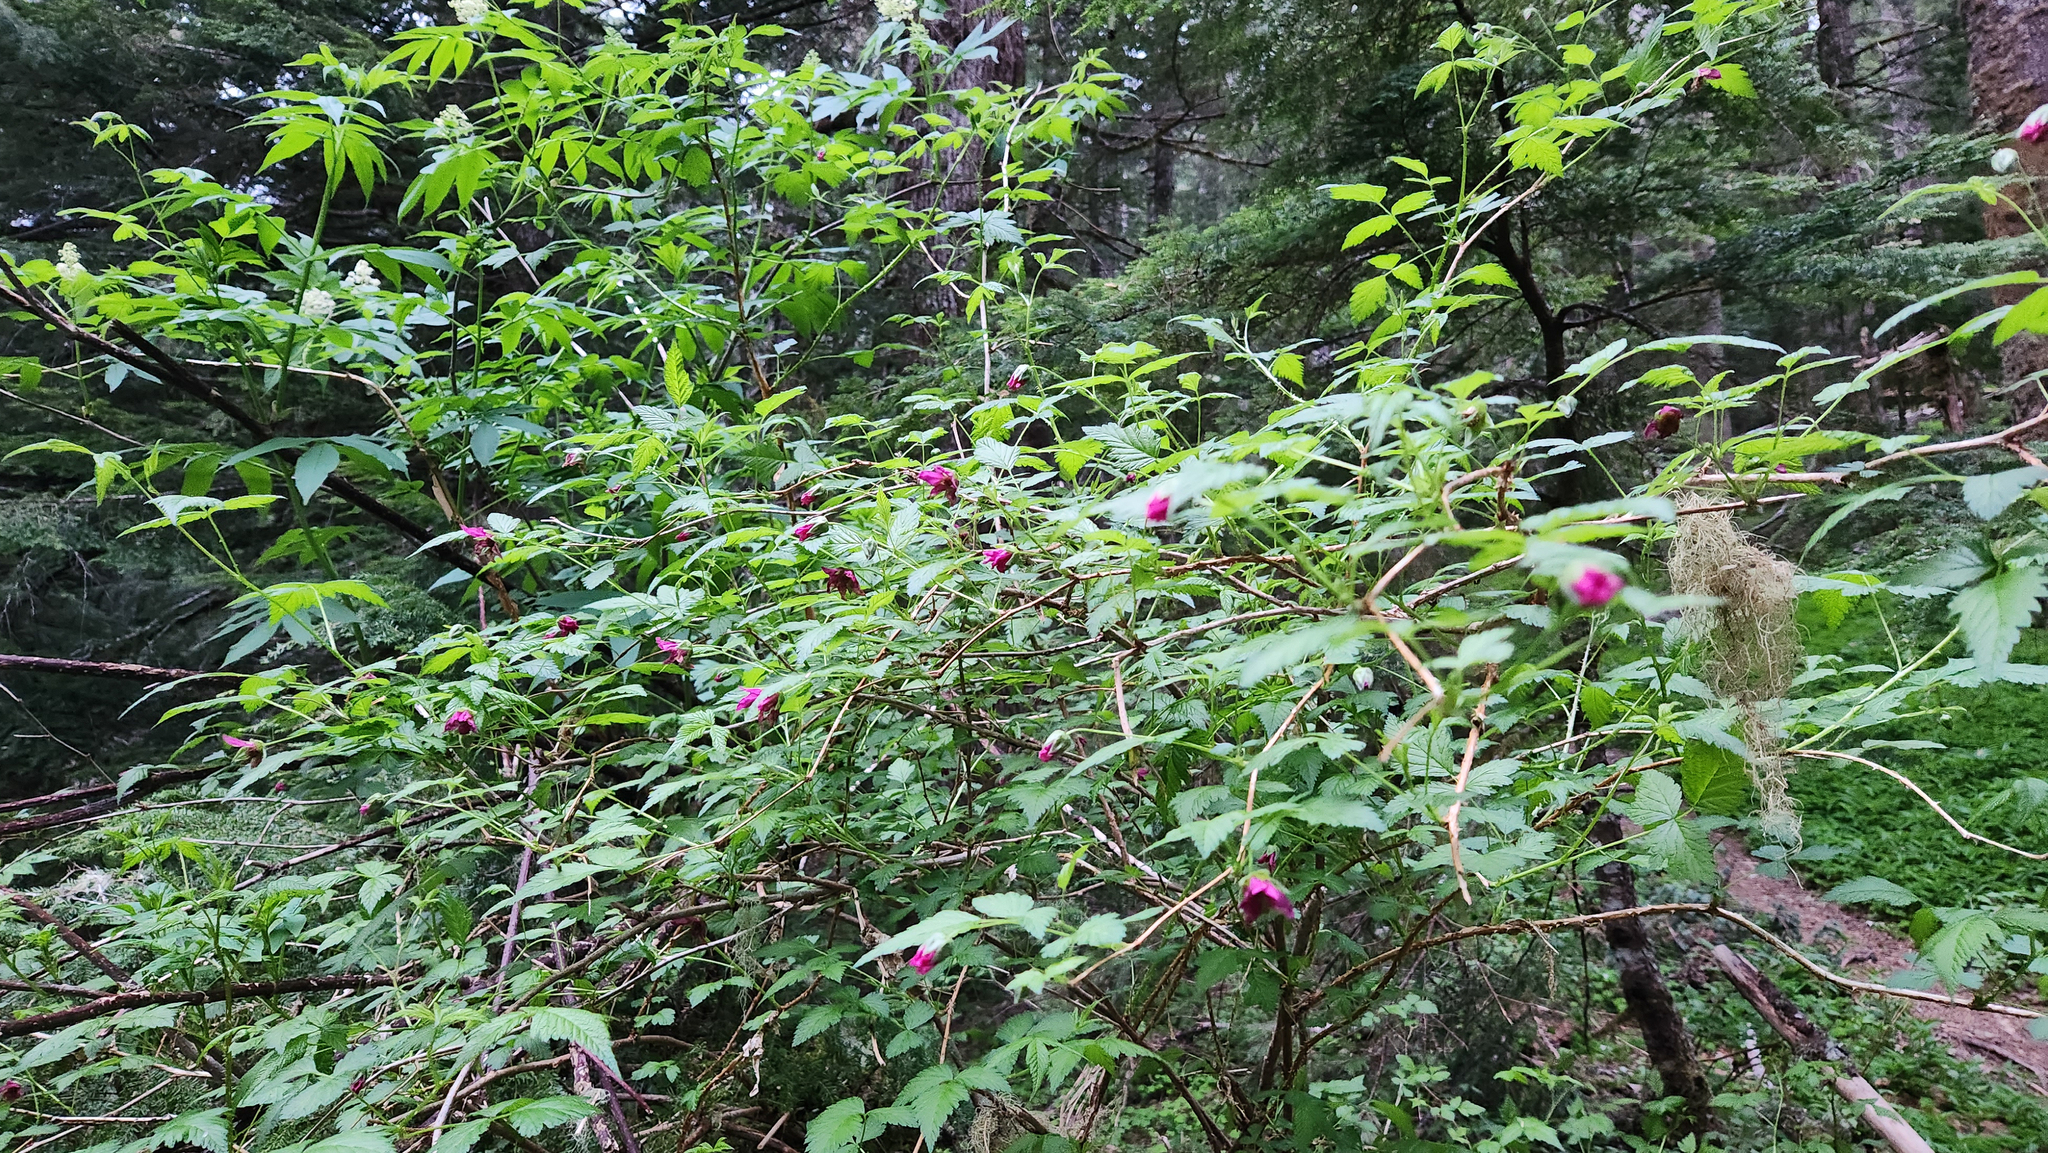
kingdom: Plantae
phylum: Tracheophyta
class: Magnoliopsida
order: Rosales
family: Rosaceae
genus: Rubus
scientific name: Rubus spectabilis
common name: Salmonberry
